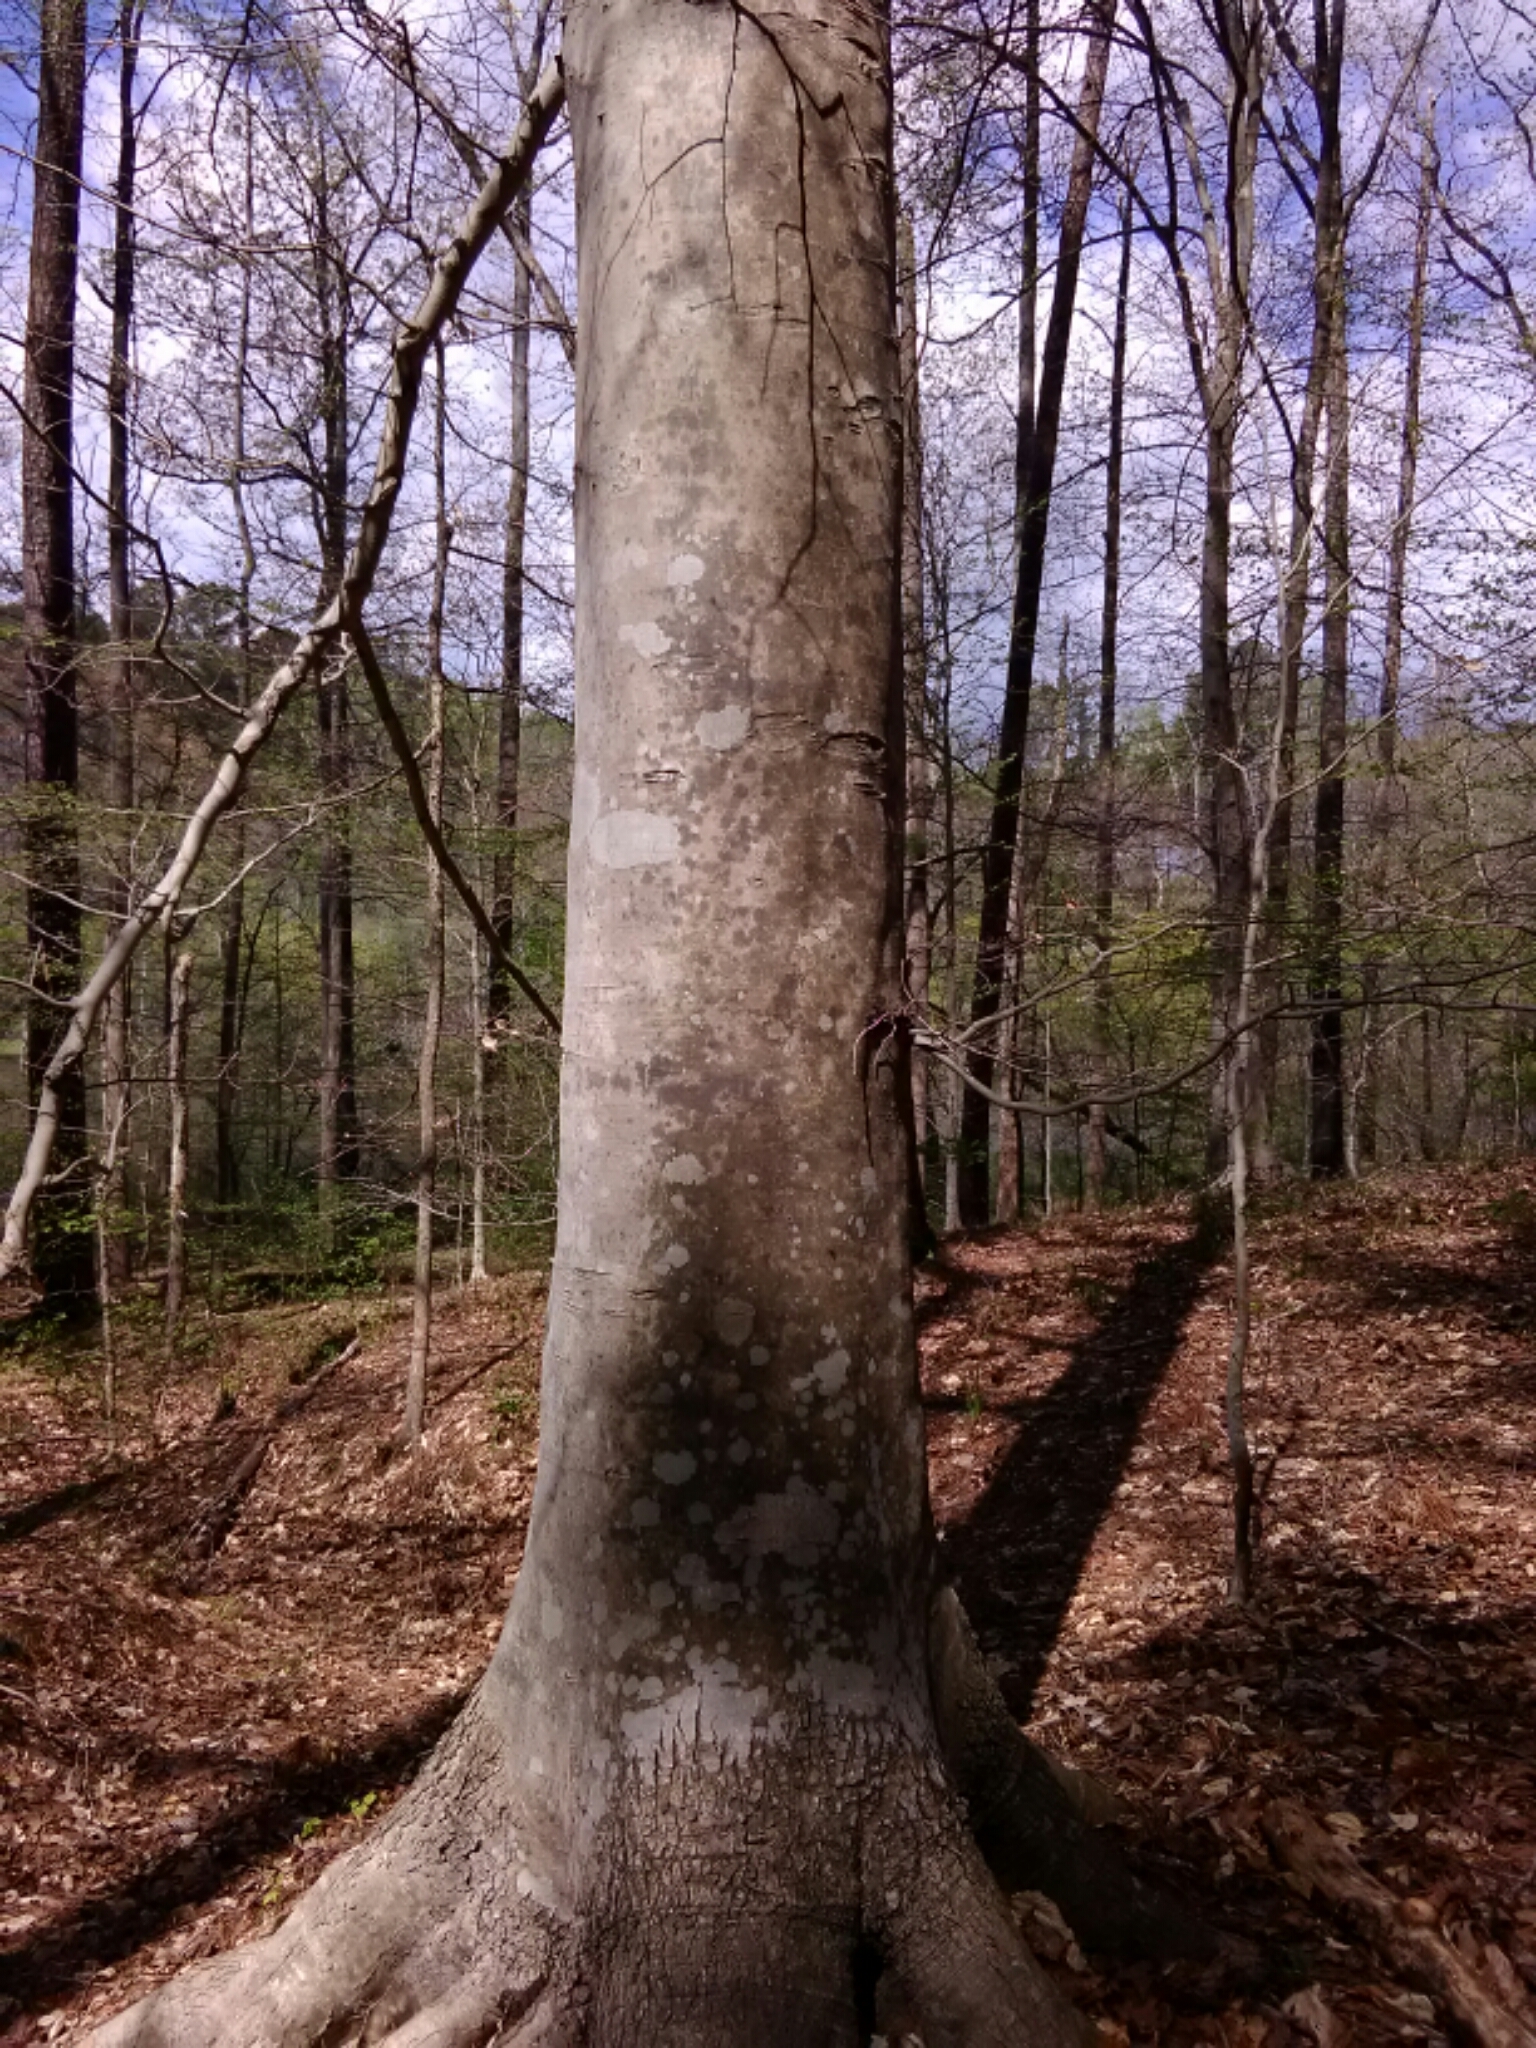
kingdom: Plantae
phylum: Tracheophyta
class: Magnoliopsida
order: Fagales
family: Fagaceae
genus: Fagus
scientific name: Fagus grandifolia
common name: American beech
